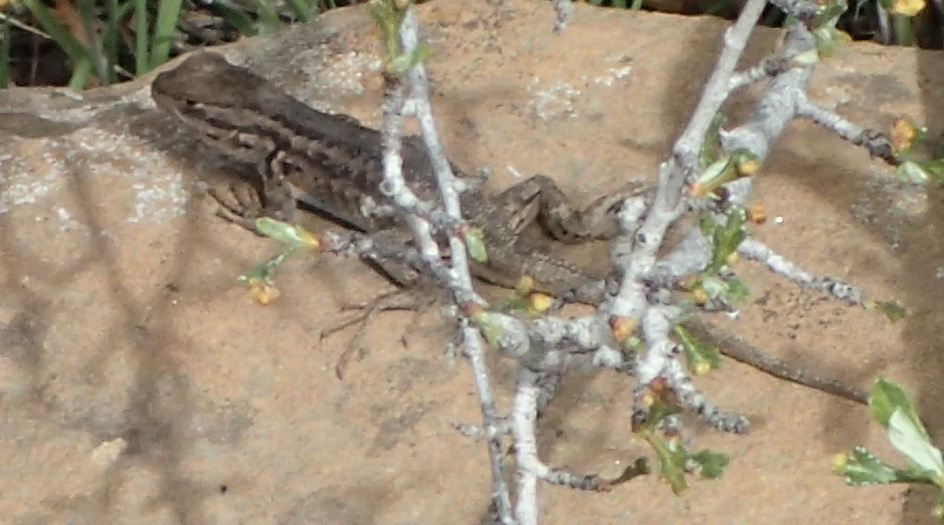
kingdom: Animalia
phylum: Chordata
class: Squamata
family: Phrynosomatidae
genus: Sceloporus
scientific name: Sceloporus graciosus
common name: Sagebrush lizard
